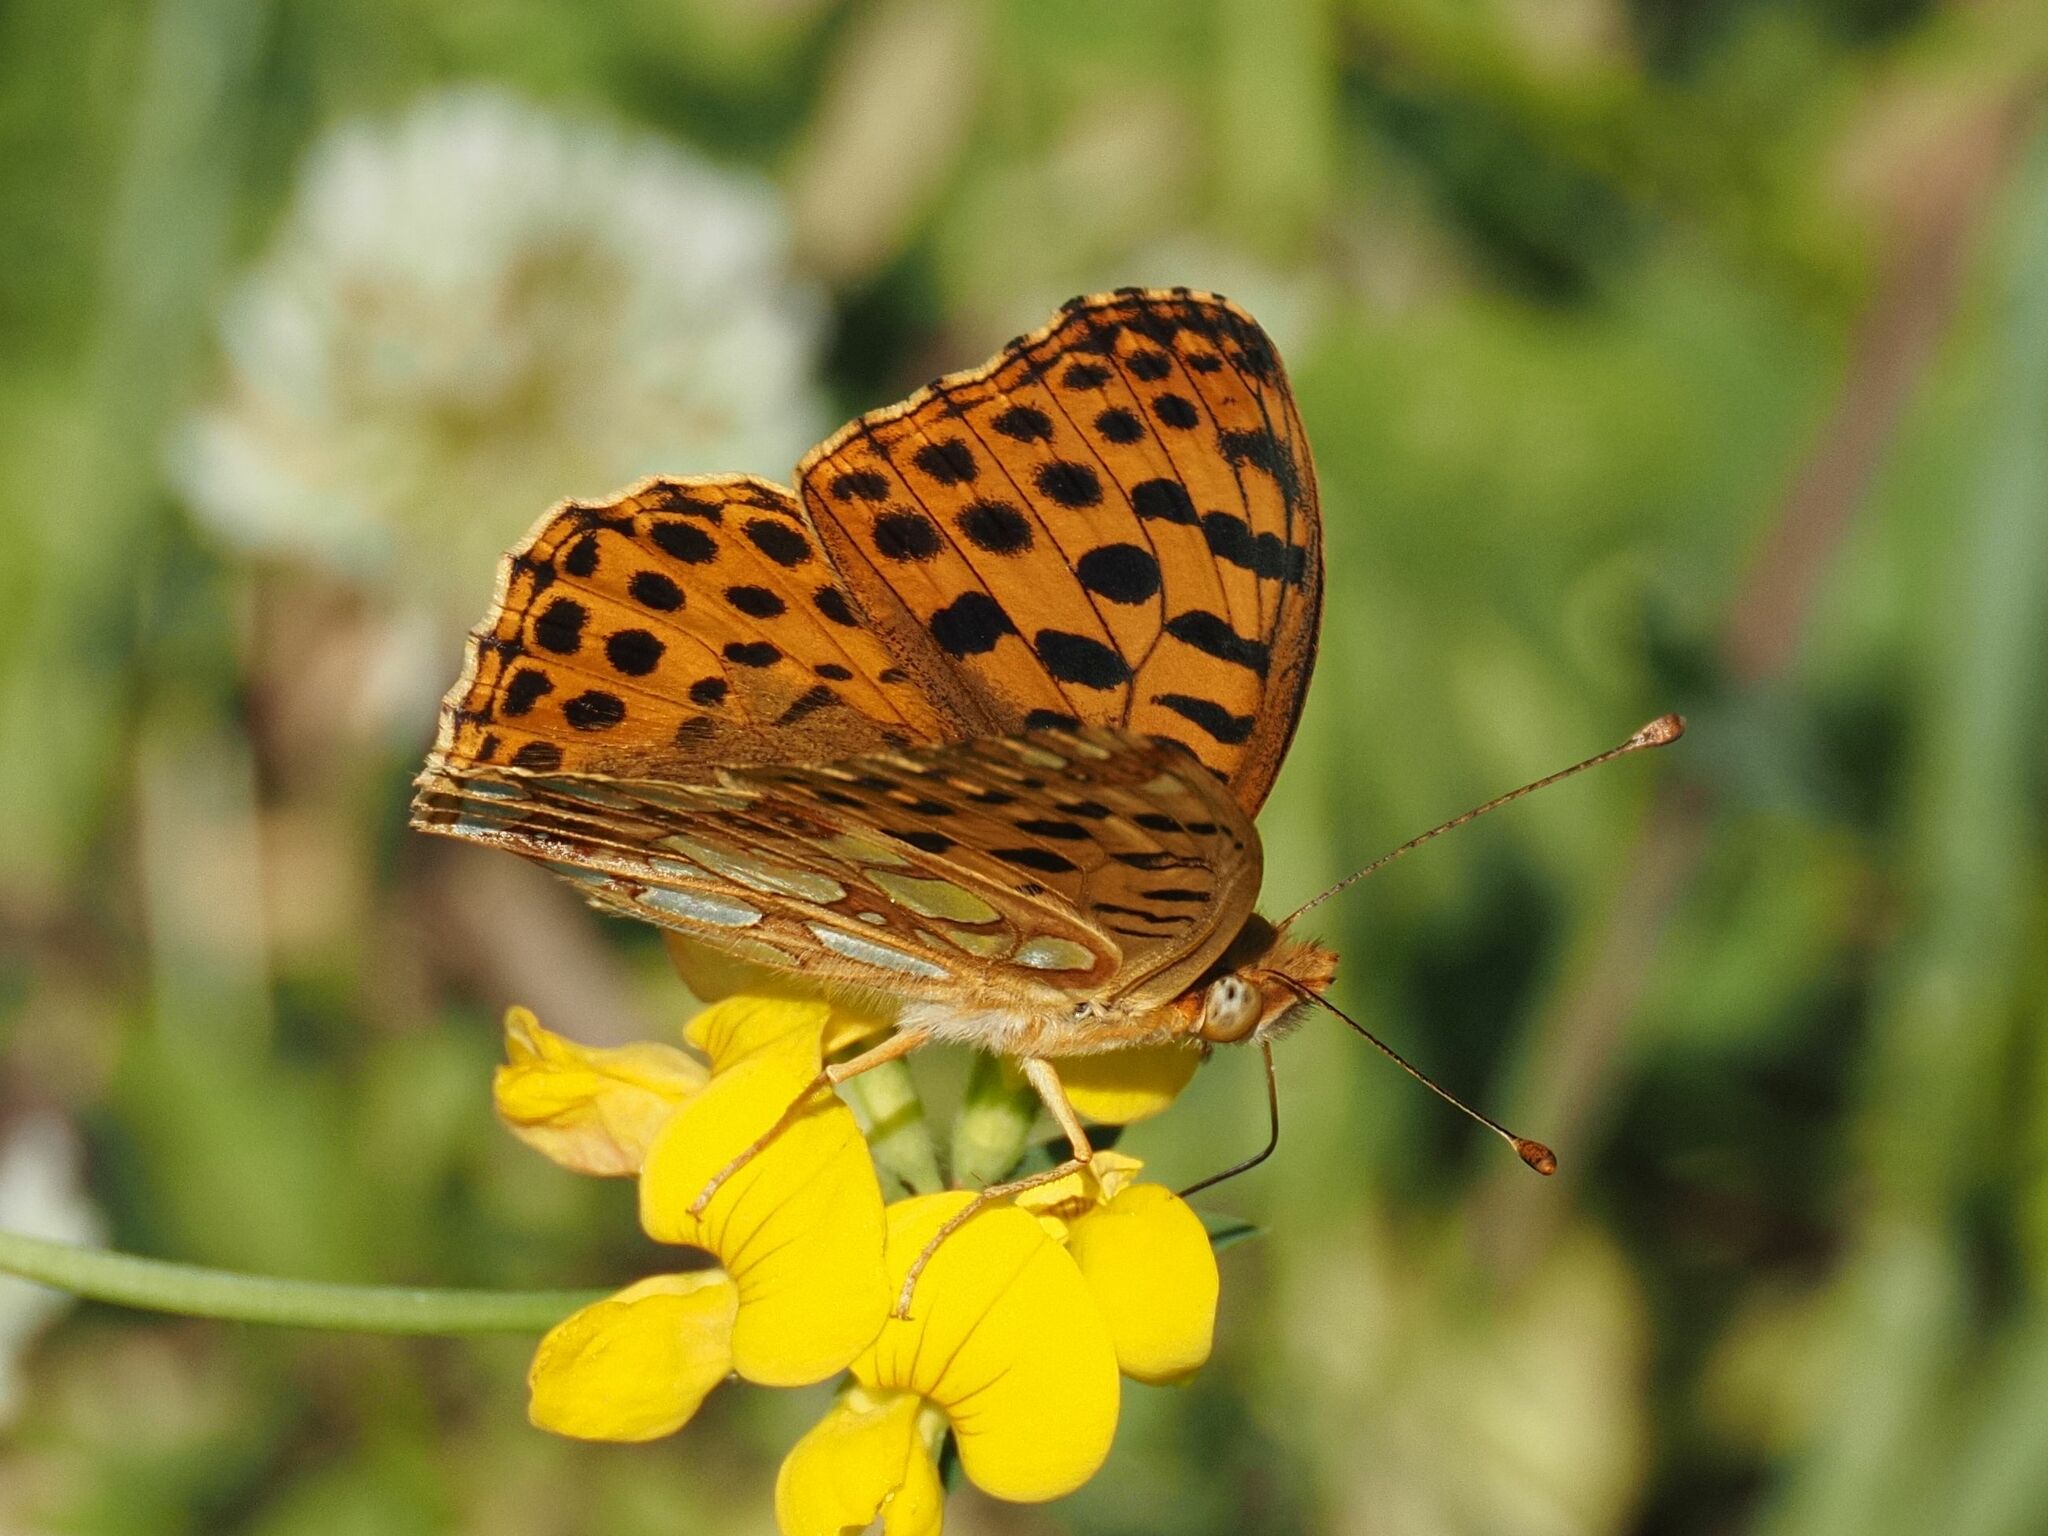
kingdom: Animalia
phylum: Arthropoda
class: Insecta
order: Lepidoptera
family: Nymphalidae
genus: Issoria
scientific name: Issoria lathonia
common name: Queen of spain fritillary
